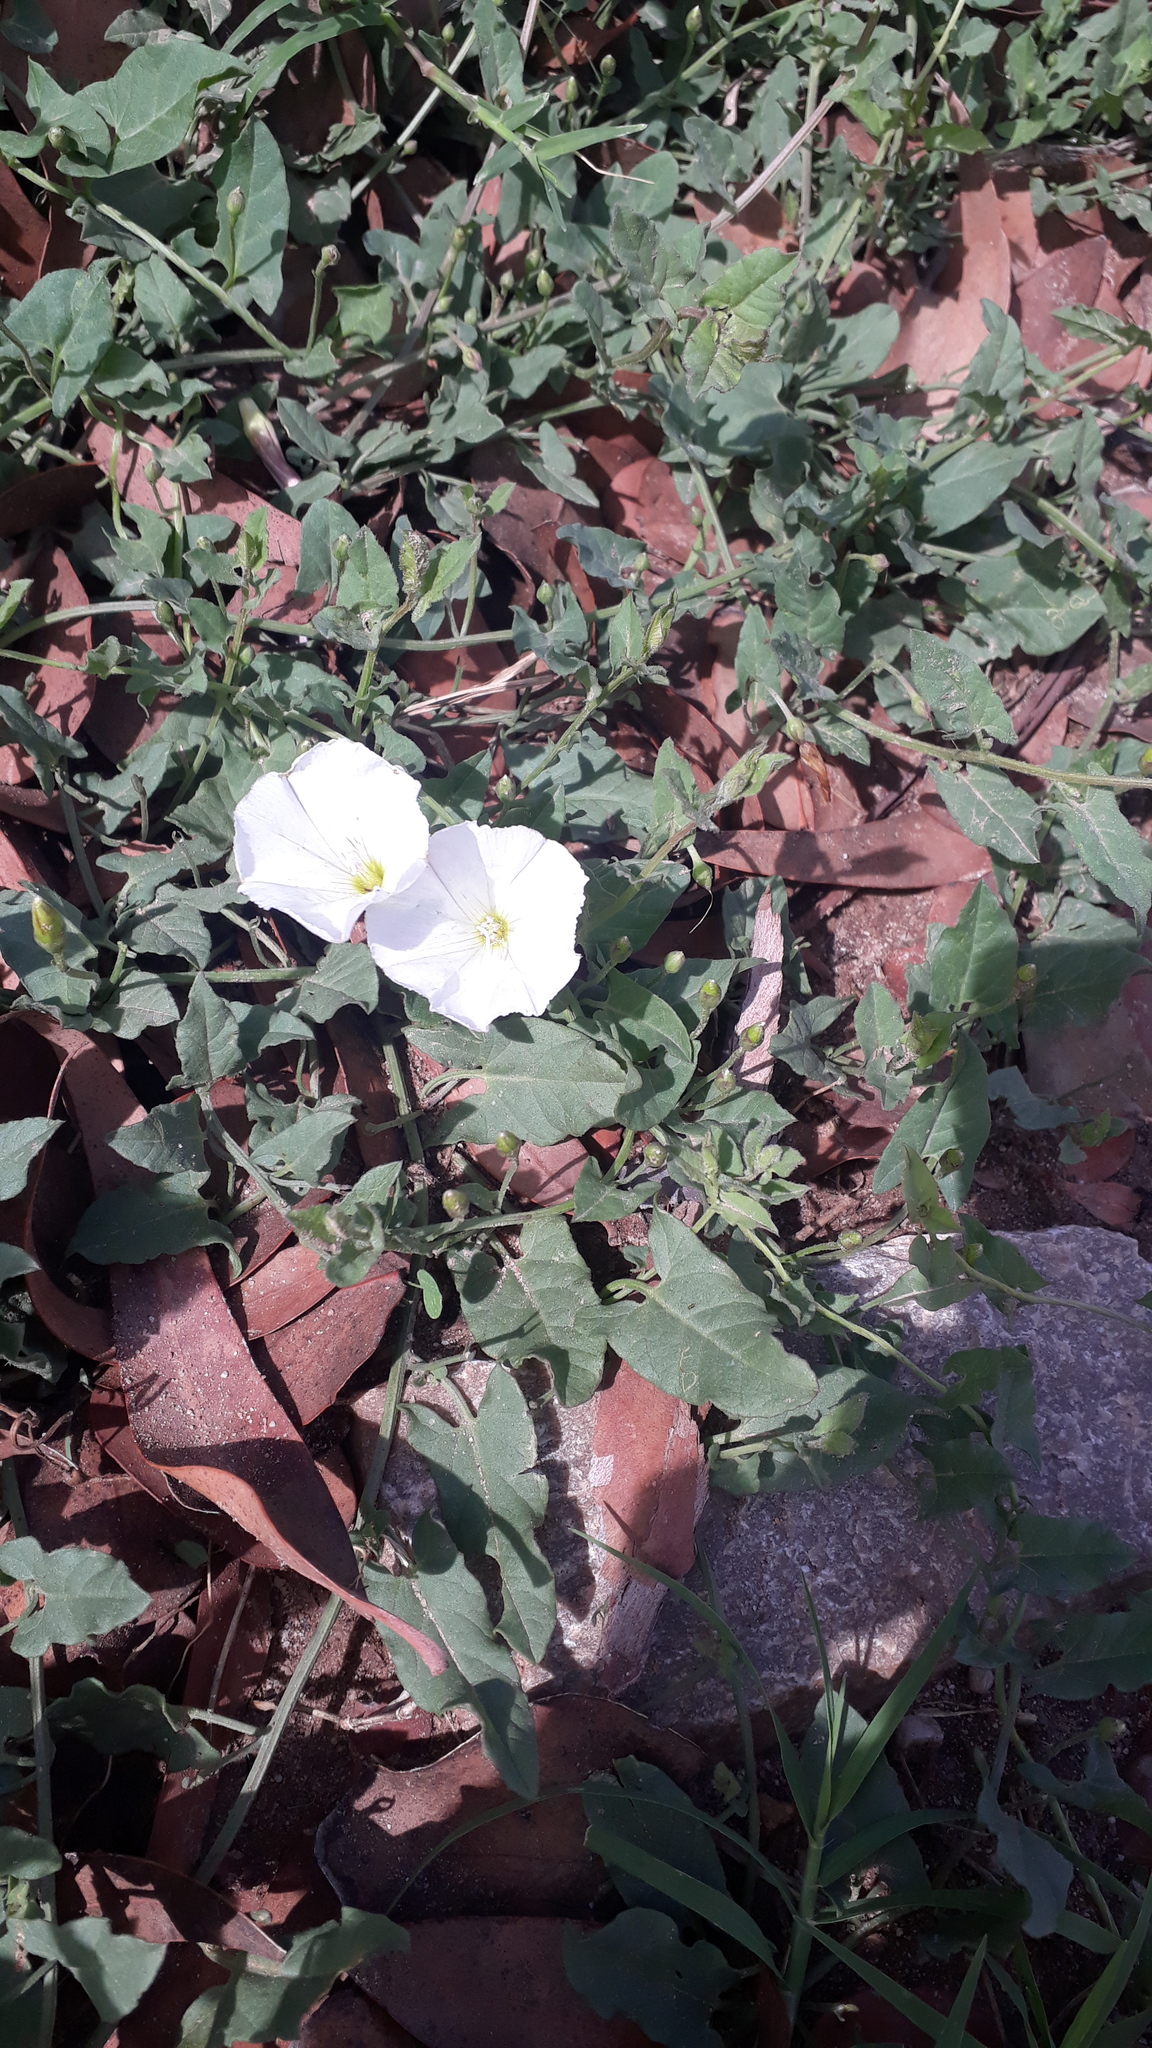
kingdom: Plantae
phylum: Tracheophyta
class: Magnoliopsida
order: Solanales
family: Convolvulaceae
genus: Convolvulus
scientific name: Convolvulus arvensis
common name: Field bindweed
